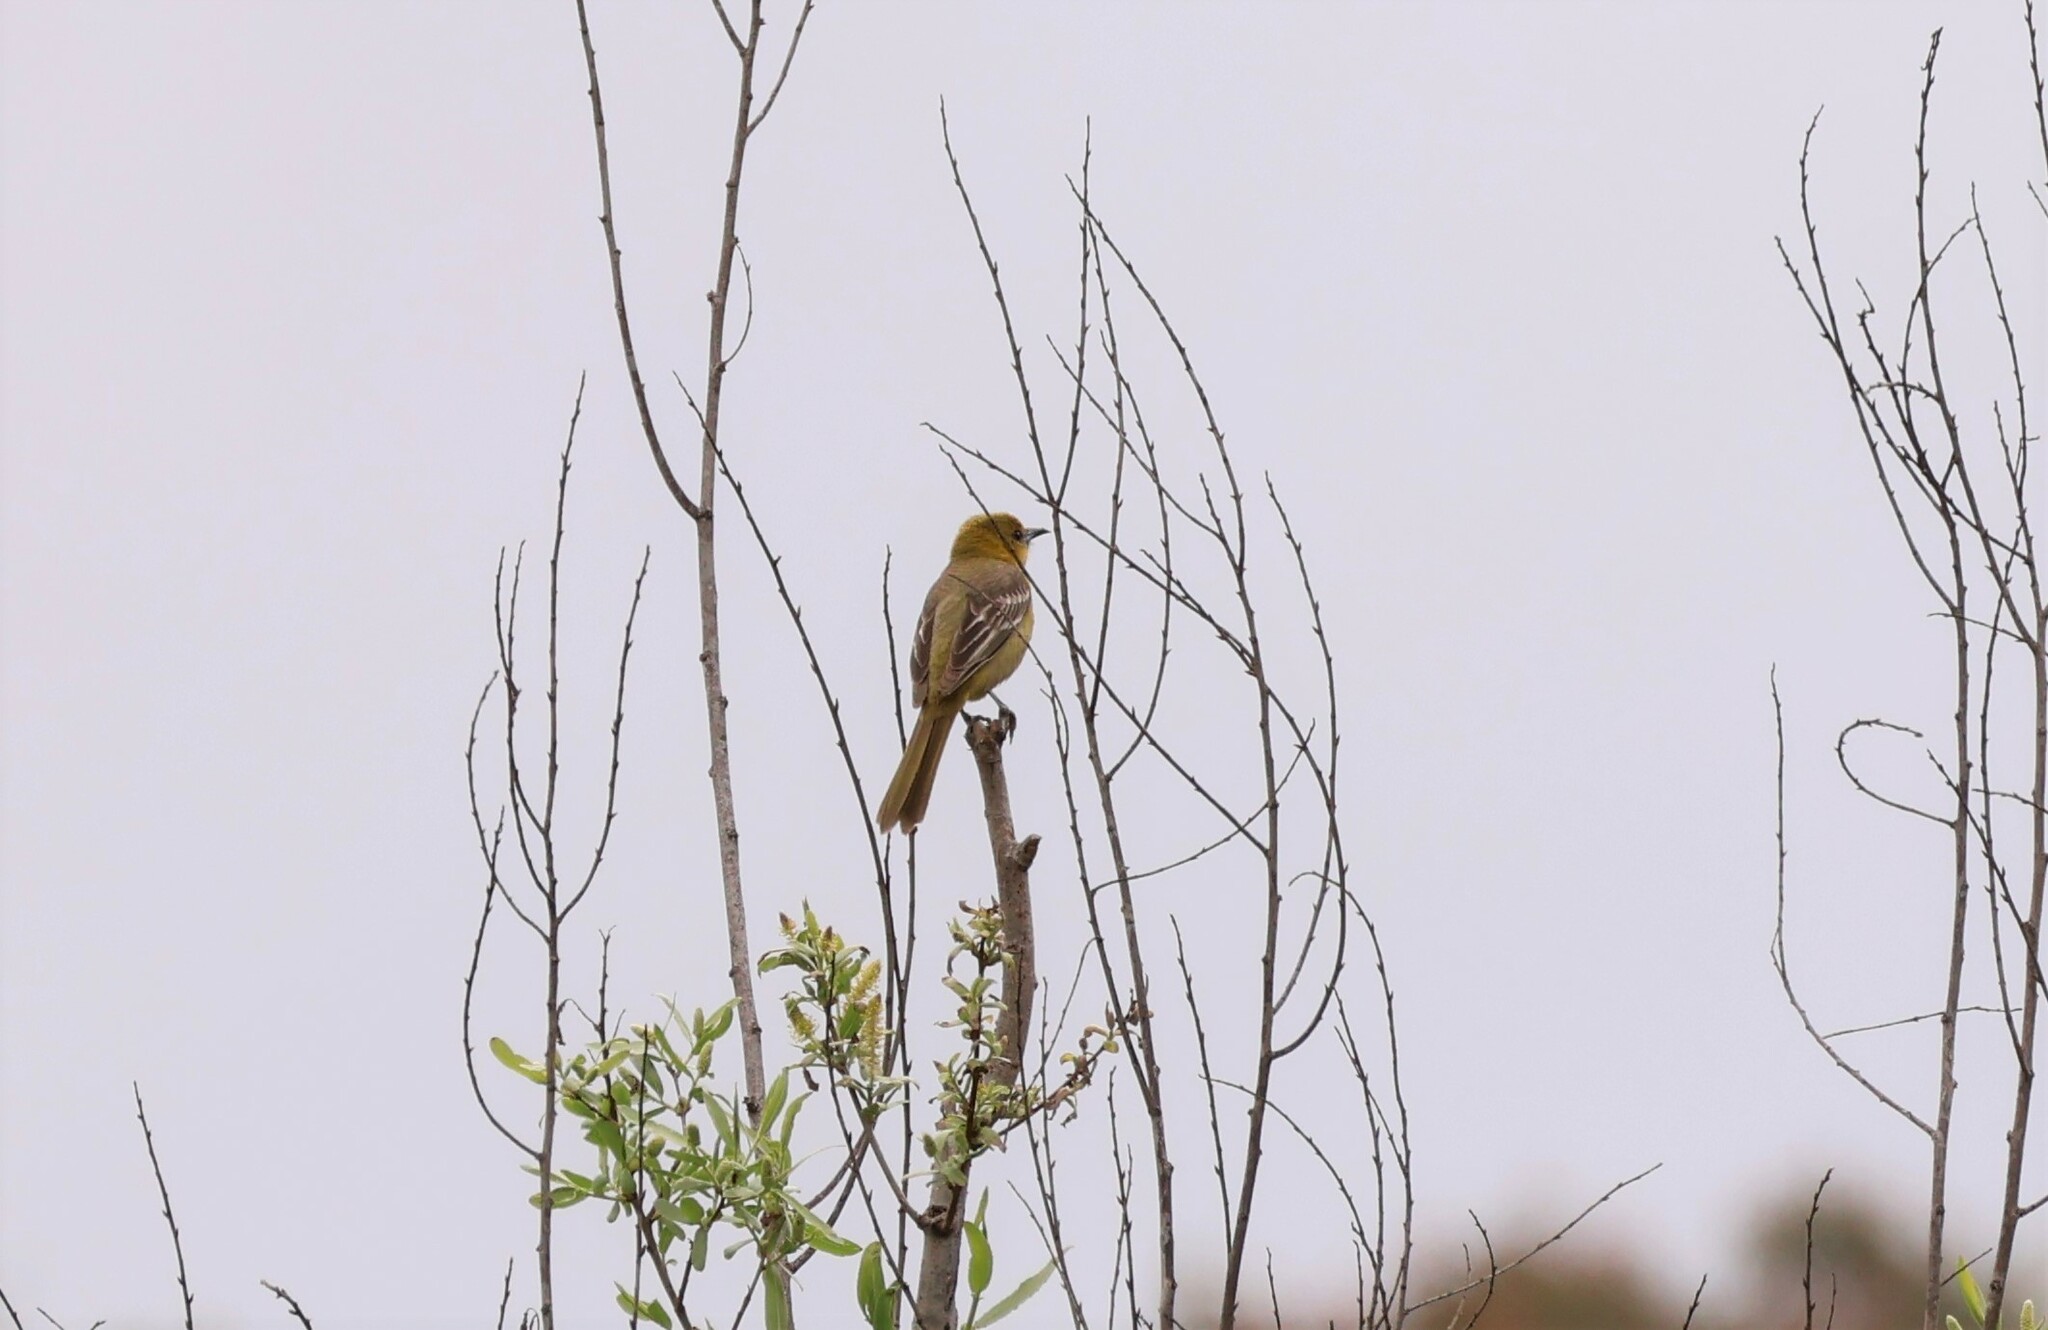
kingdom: Animalia
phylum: Chordata
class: Aves
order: Passeriformes
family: Icteridae
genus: Icterus
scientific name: Icterus cucullatus
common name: Hooded oriole
